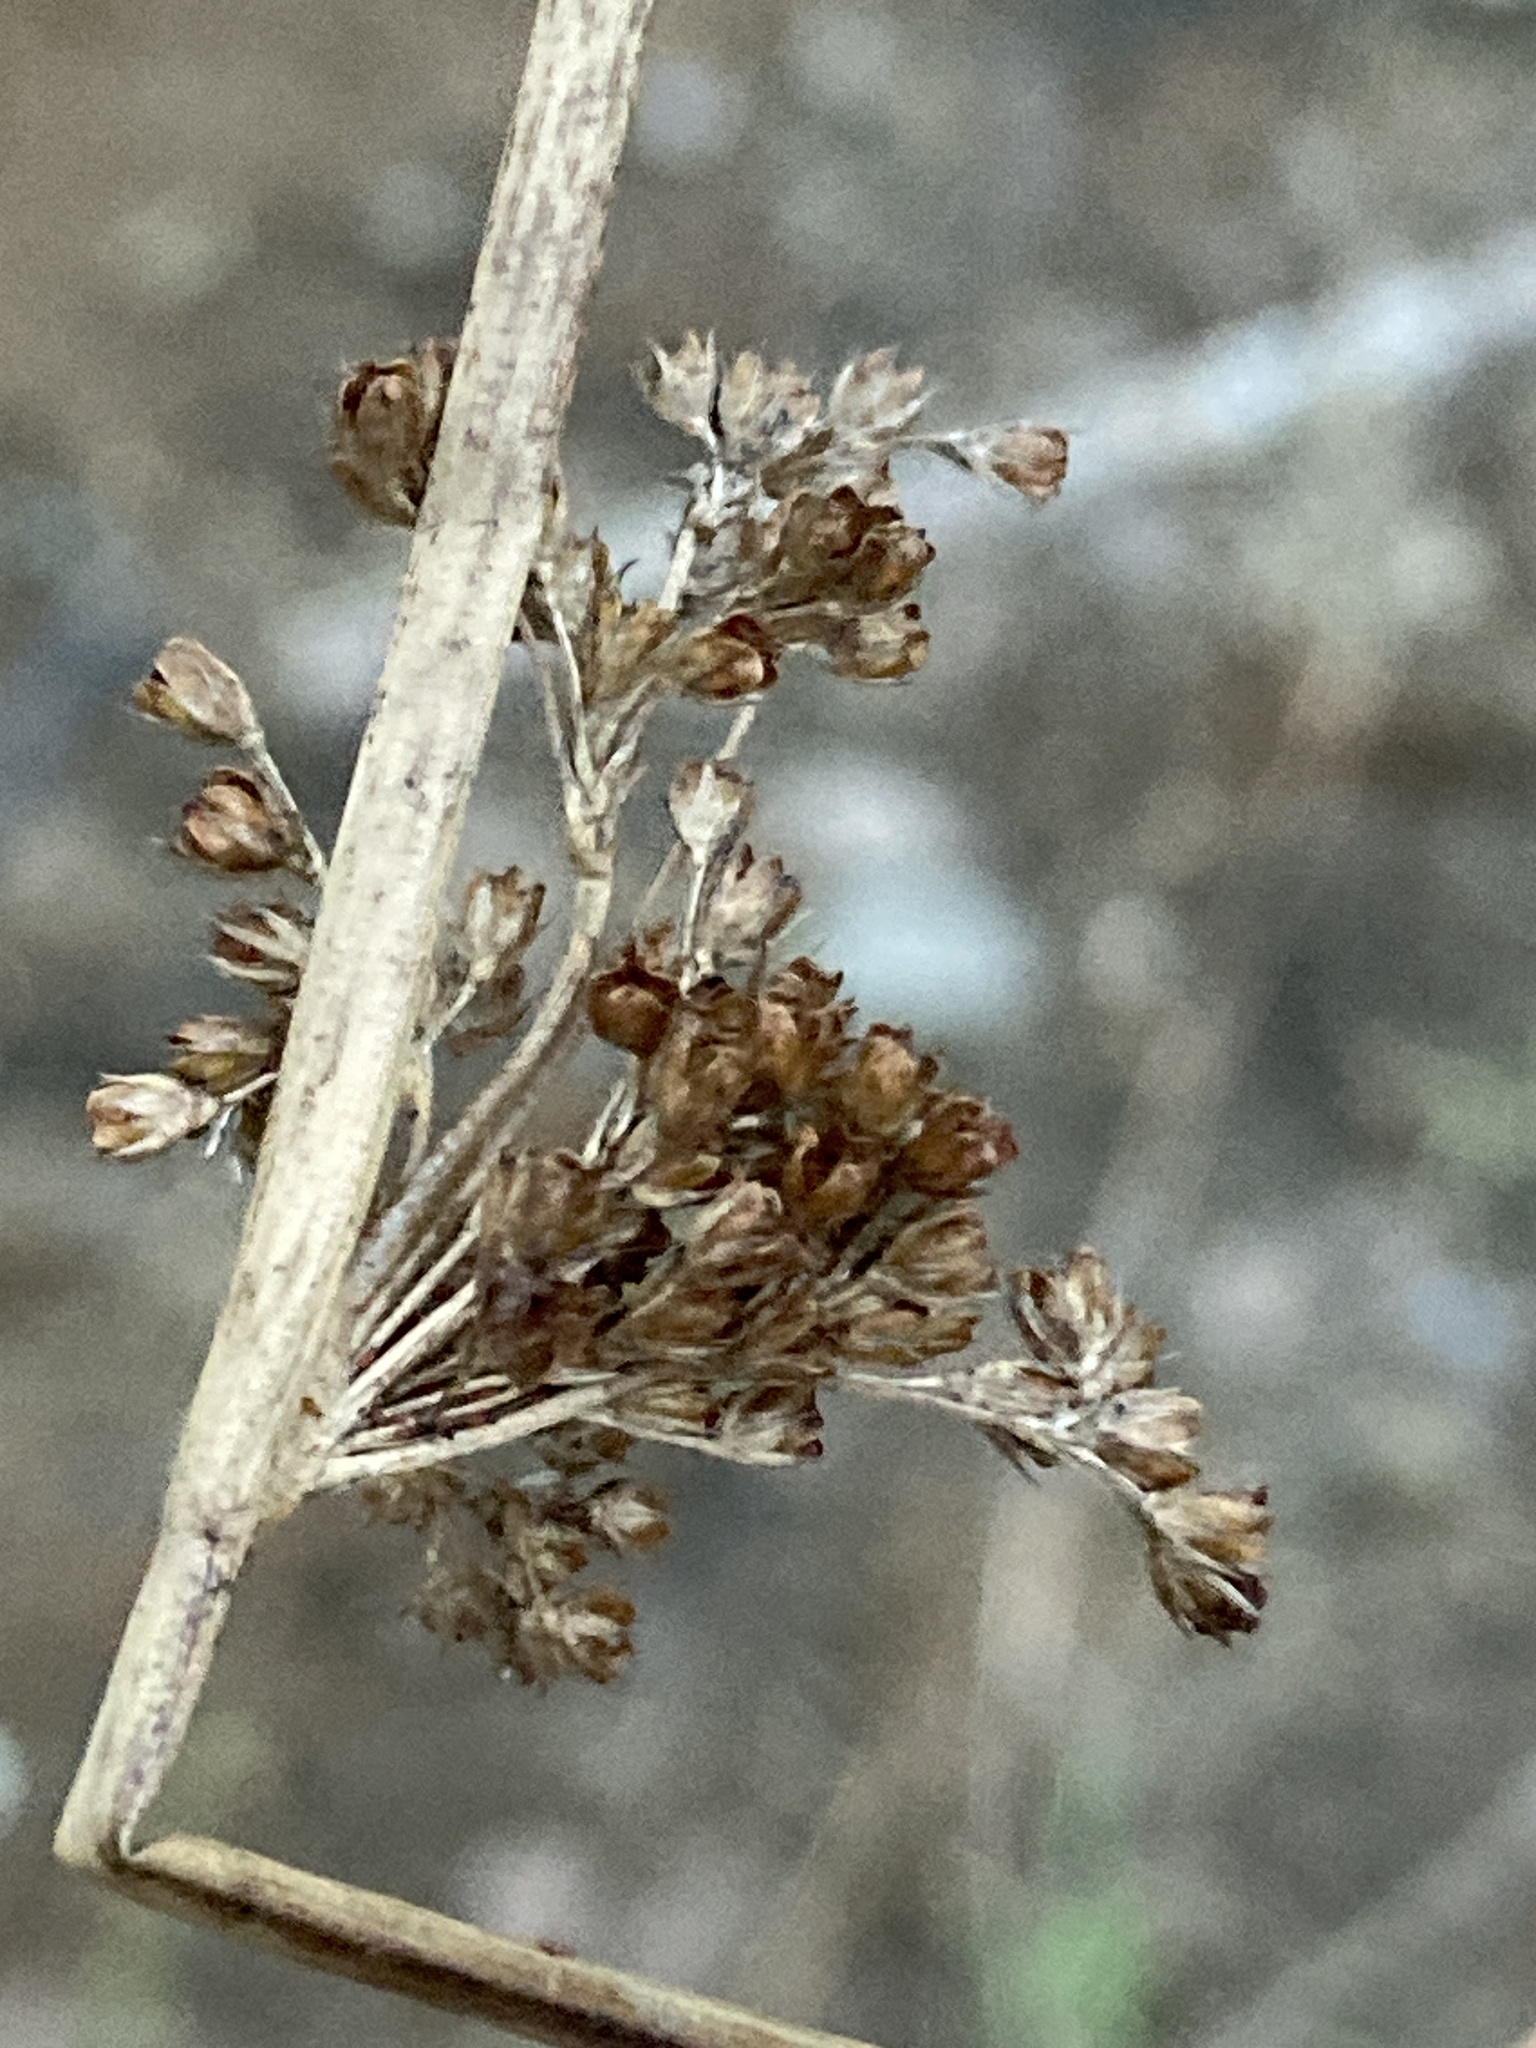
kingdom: Plantae
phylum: Tracheophyta
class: Liliopsida
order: Poales
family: Juncaceae
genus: Juncus
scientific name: Juncus effusus
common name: Soft rush
